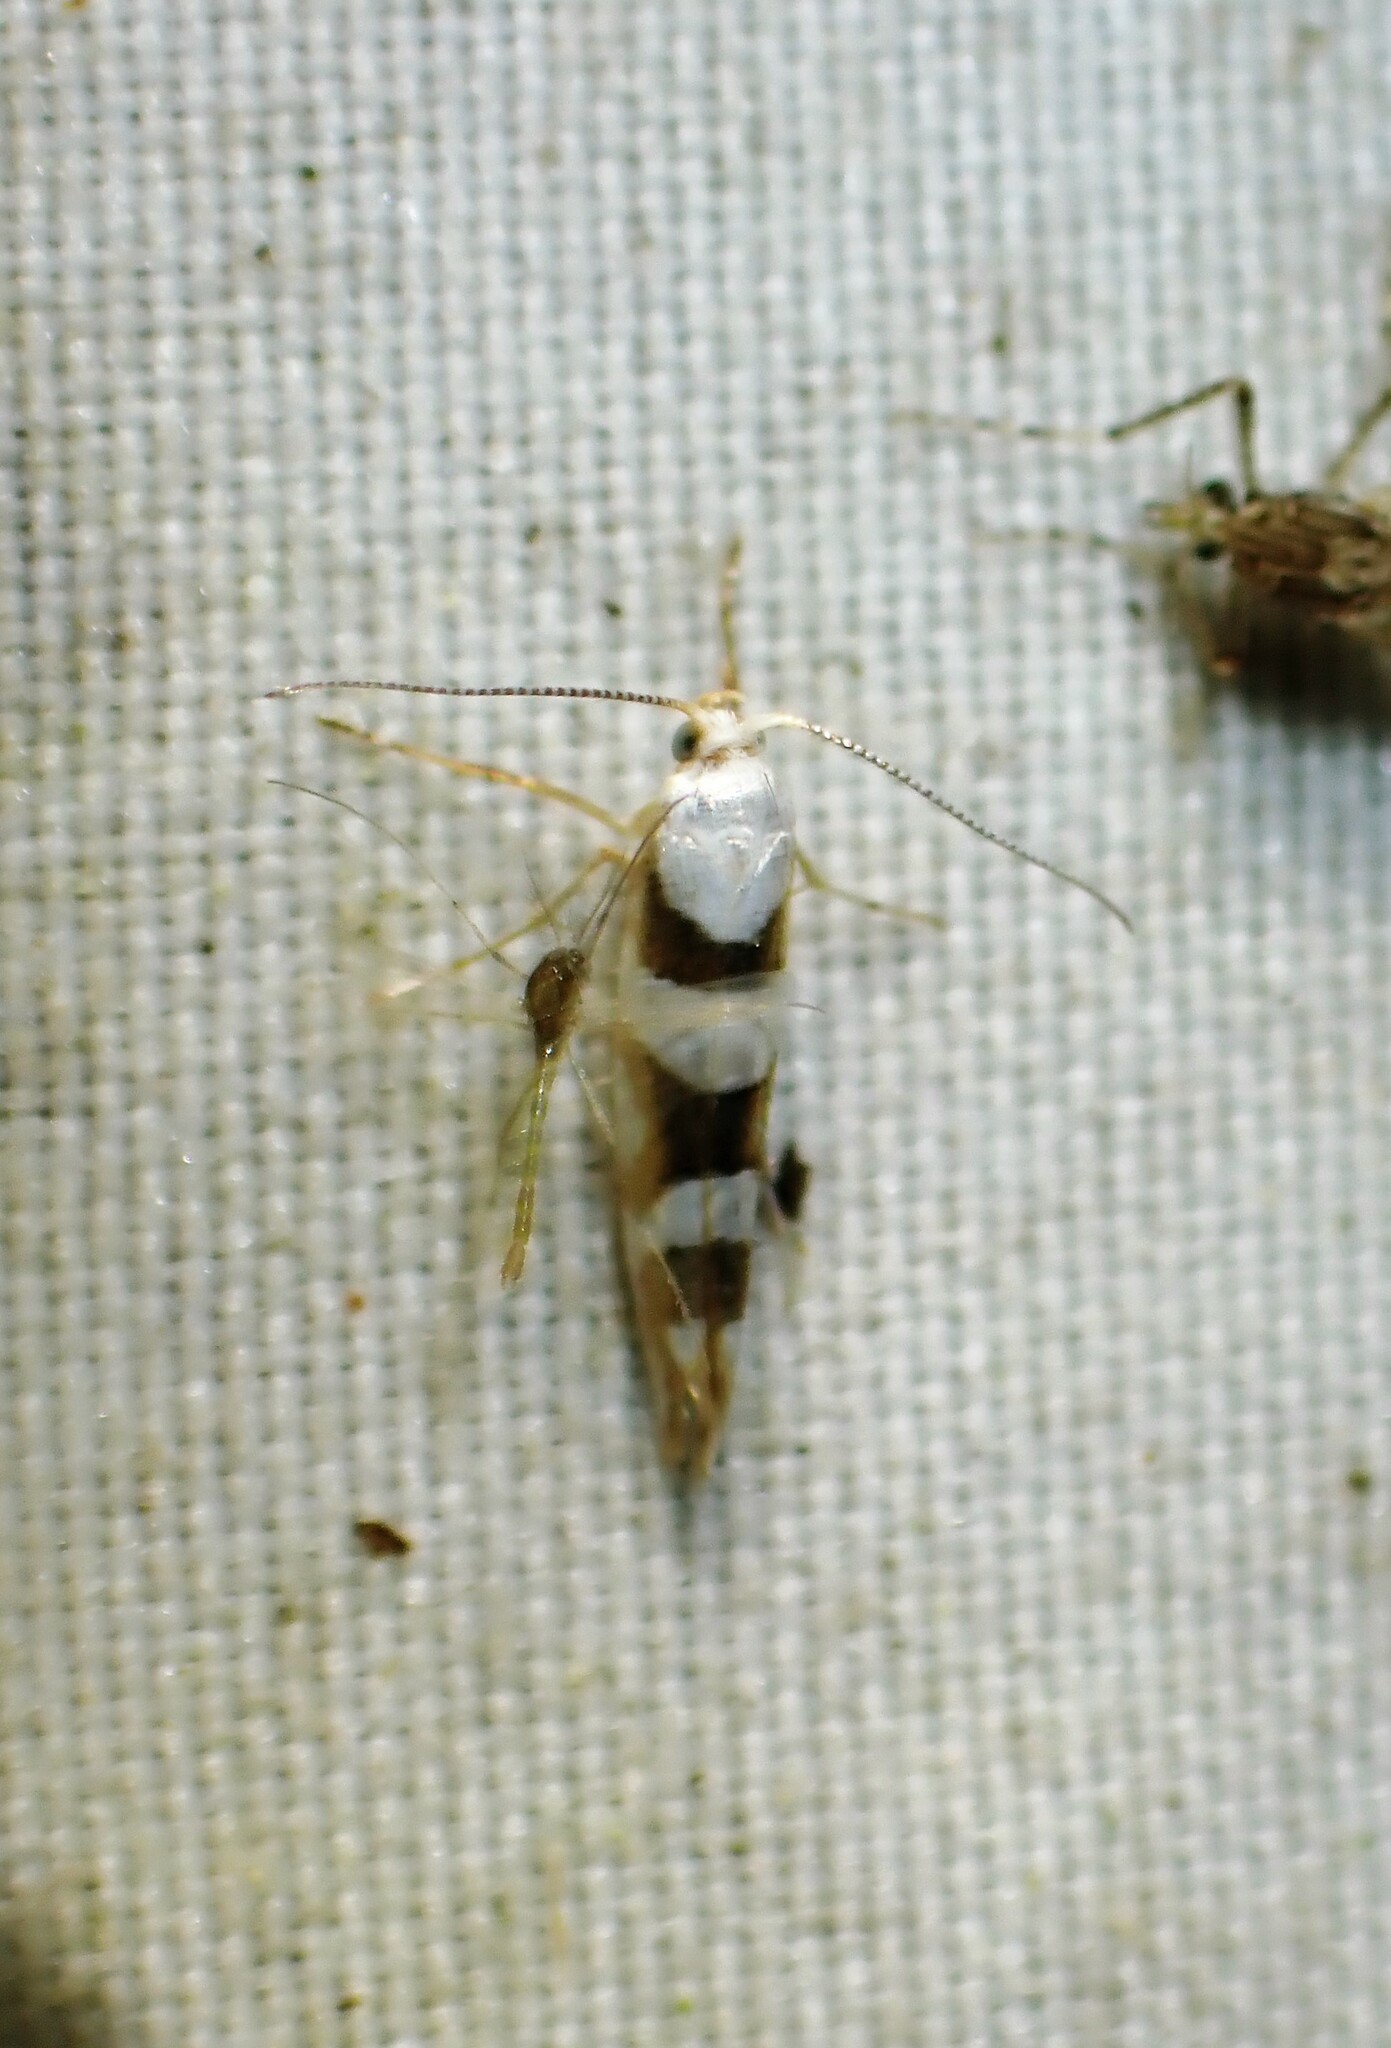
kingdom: Animalia
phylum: Arthropoda
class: Insecta
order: Lepidoptera
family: Argyresthiidae
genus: Argyresthia
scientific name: Argyresthia calliphanes
